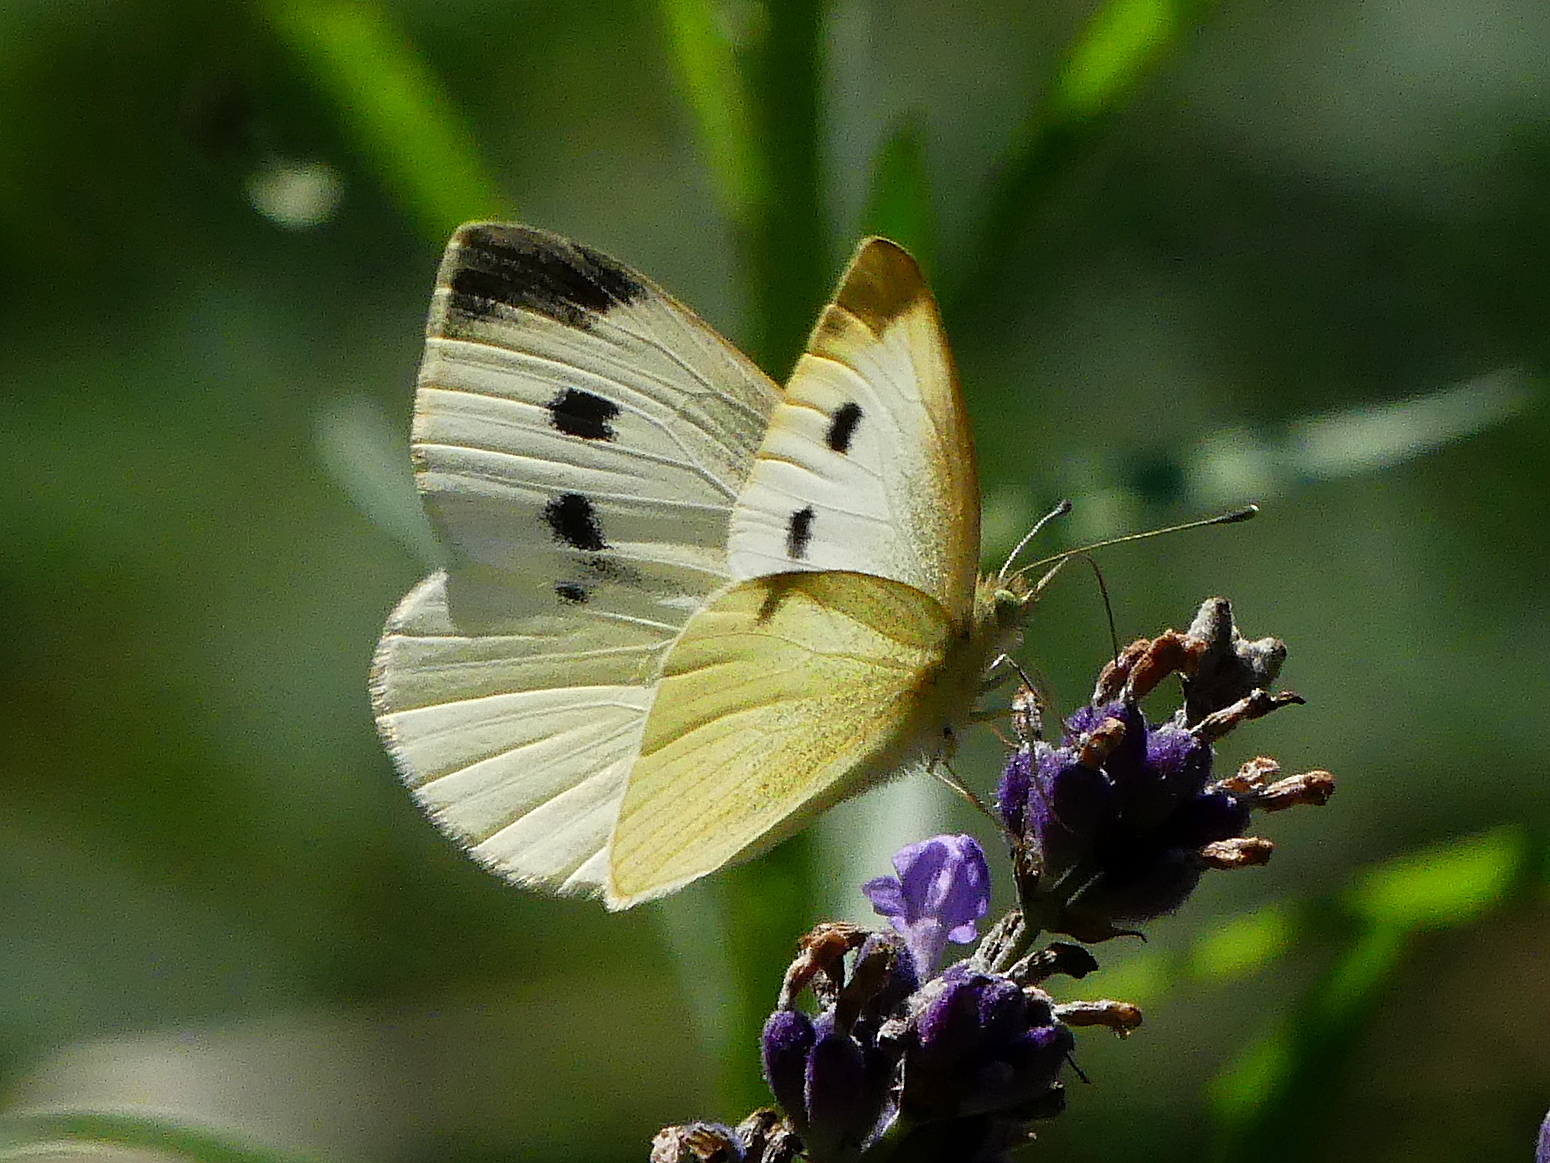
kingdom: Animalia
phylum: Arthropoda
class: Insecta
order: Lepidoptera
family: Pieridae
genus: Pieris
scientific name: Pieris rapae
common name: Small white
